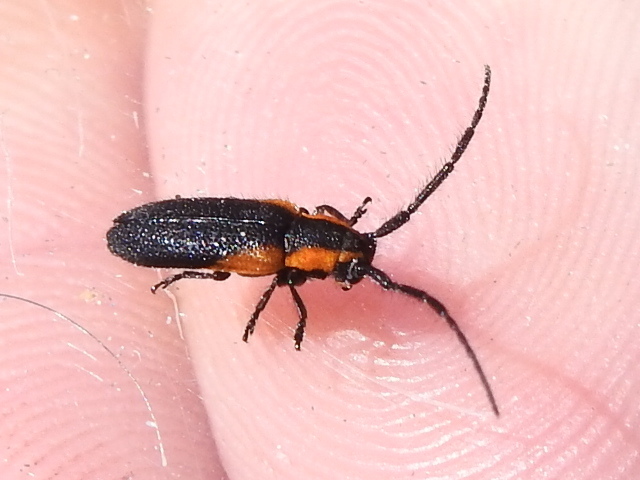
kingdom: Animalia
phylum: Arthropoda
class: Insecta
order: Coleoptera
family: Cerambycidae
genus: Hemierana
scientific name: Hemierana marginata
